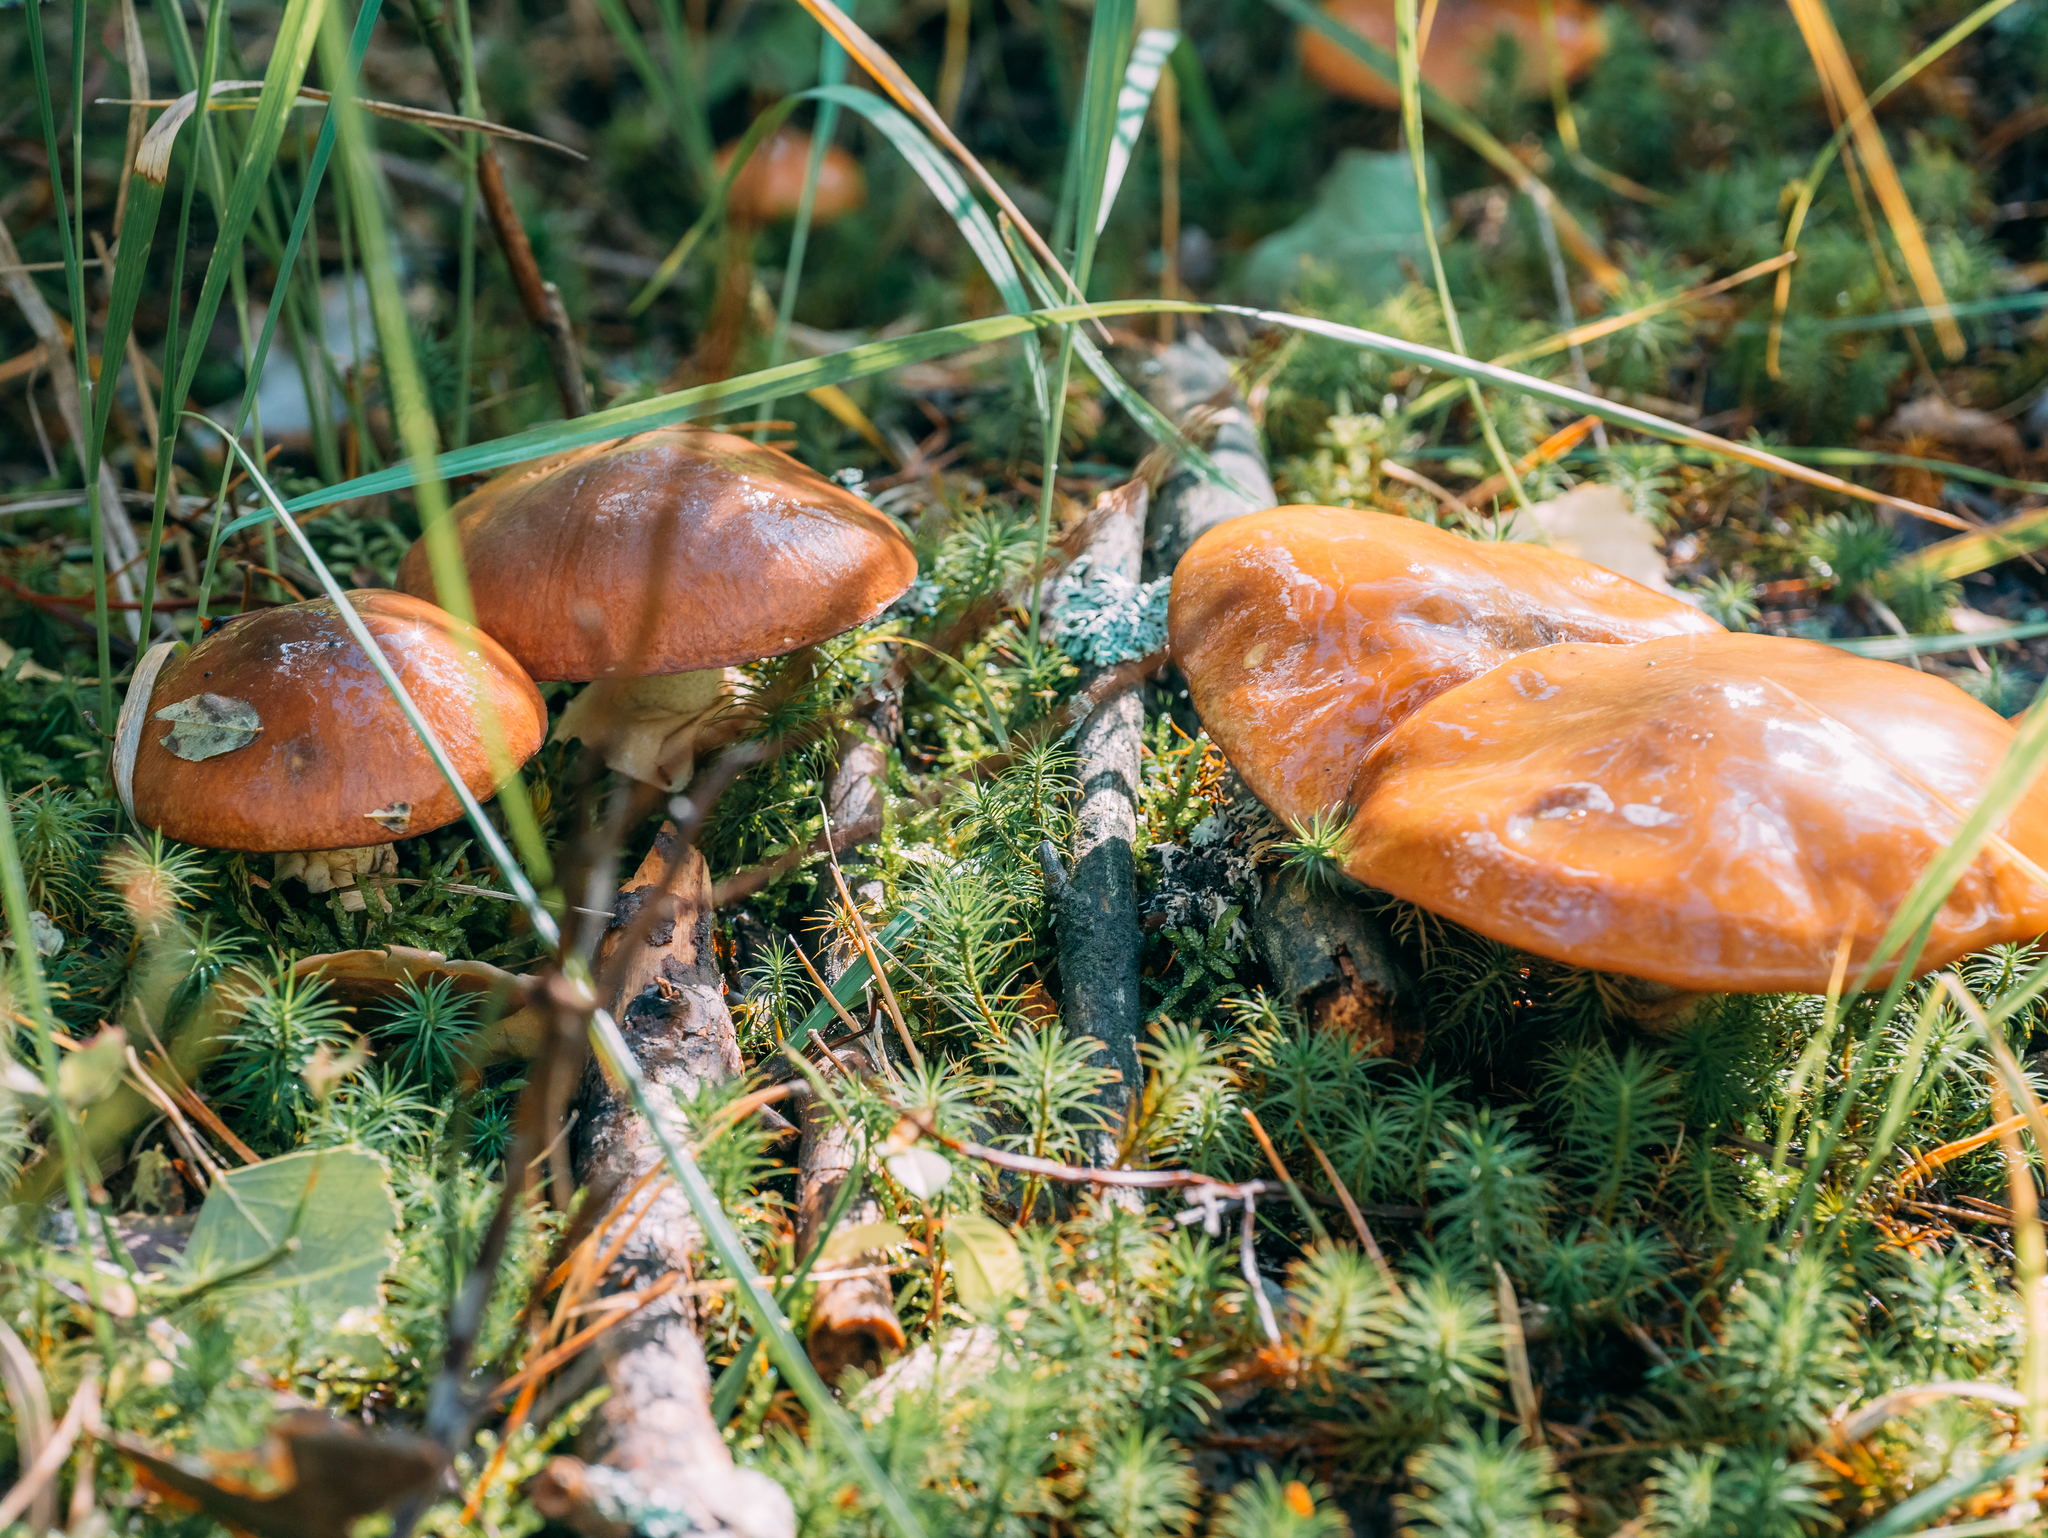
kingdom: Fungi
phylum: Basidiomycota
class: Agaricomycetes
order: Boletales
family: Suillaceae
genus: Suillus
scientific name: Suillus luteus
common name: Slippery jack
